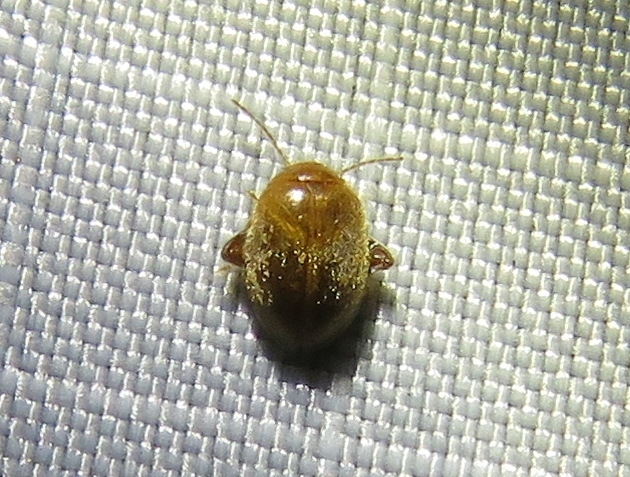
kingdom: Animalia
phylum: Arthropoda
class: Insecta
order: Coleoptera
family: Scirtidae
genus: Scirtes
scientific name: Scirtes tibialis
